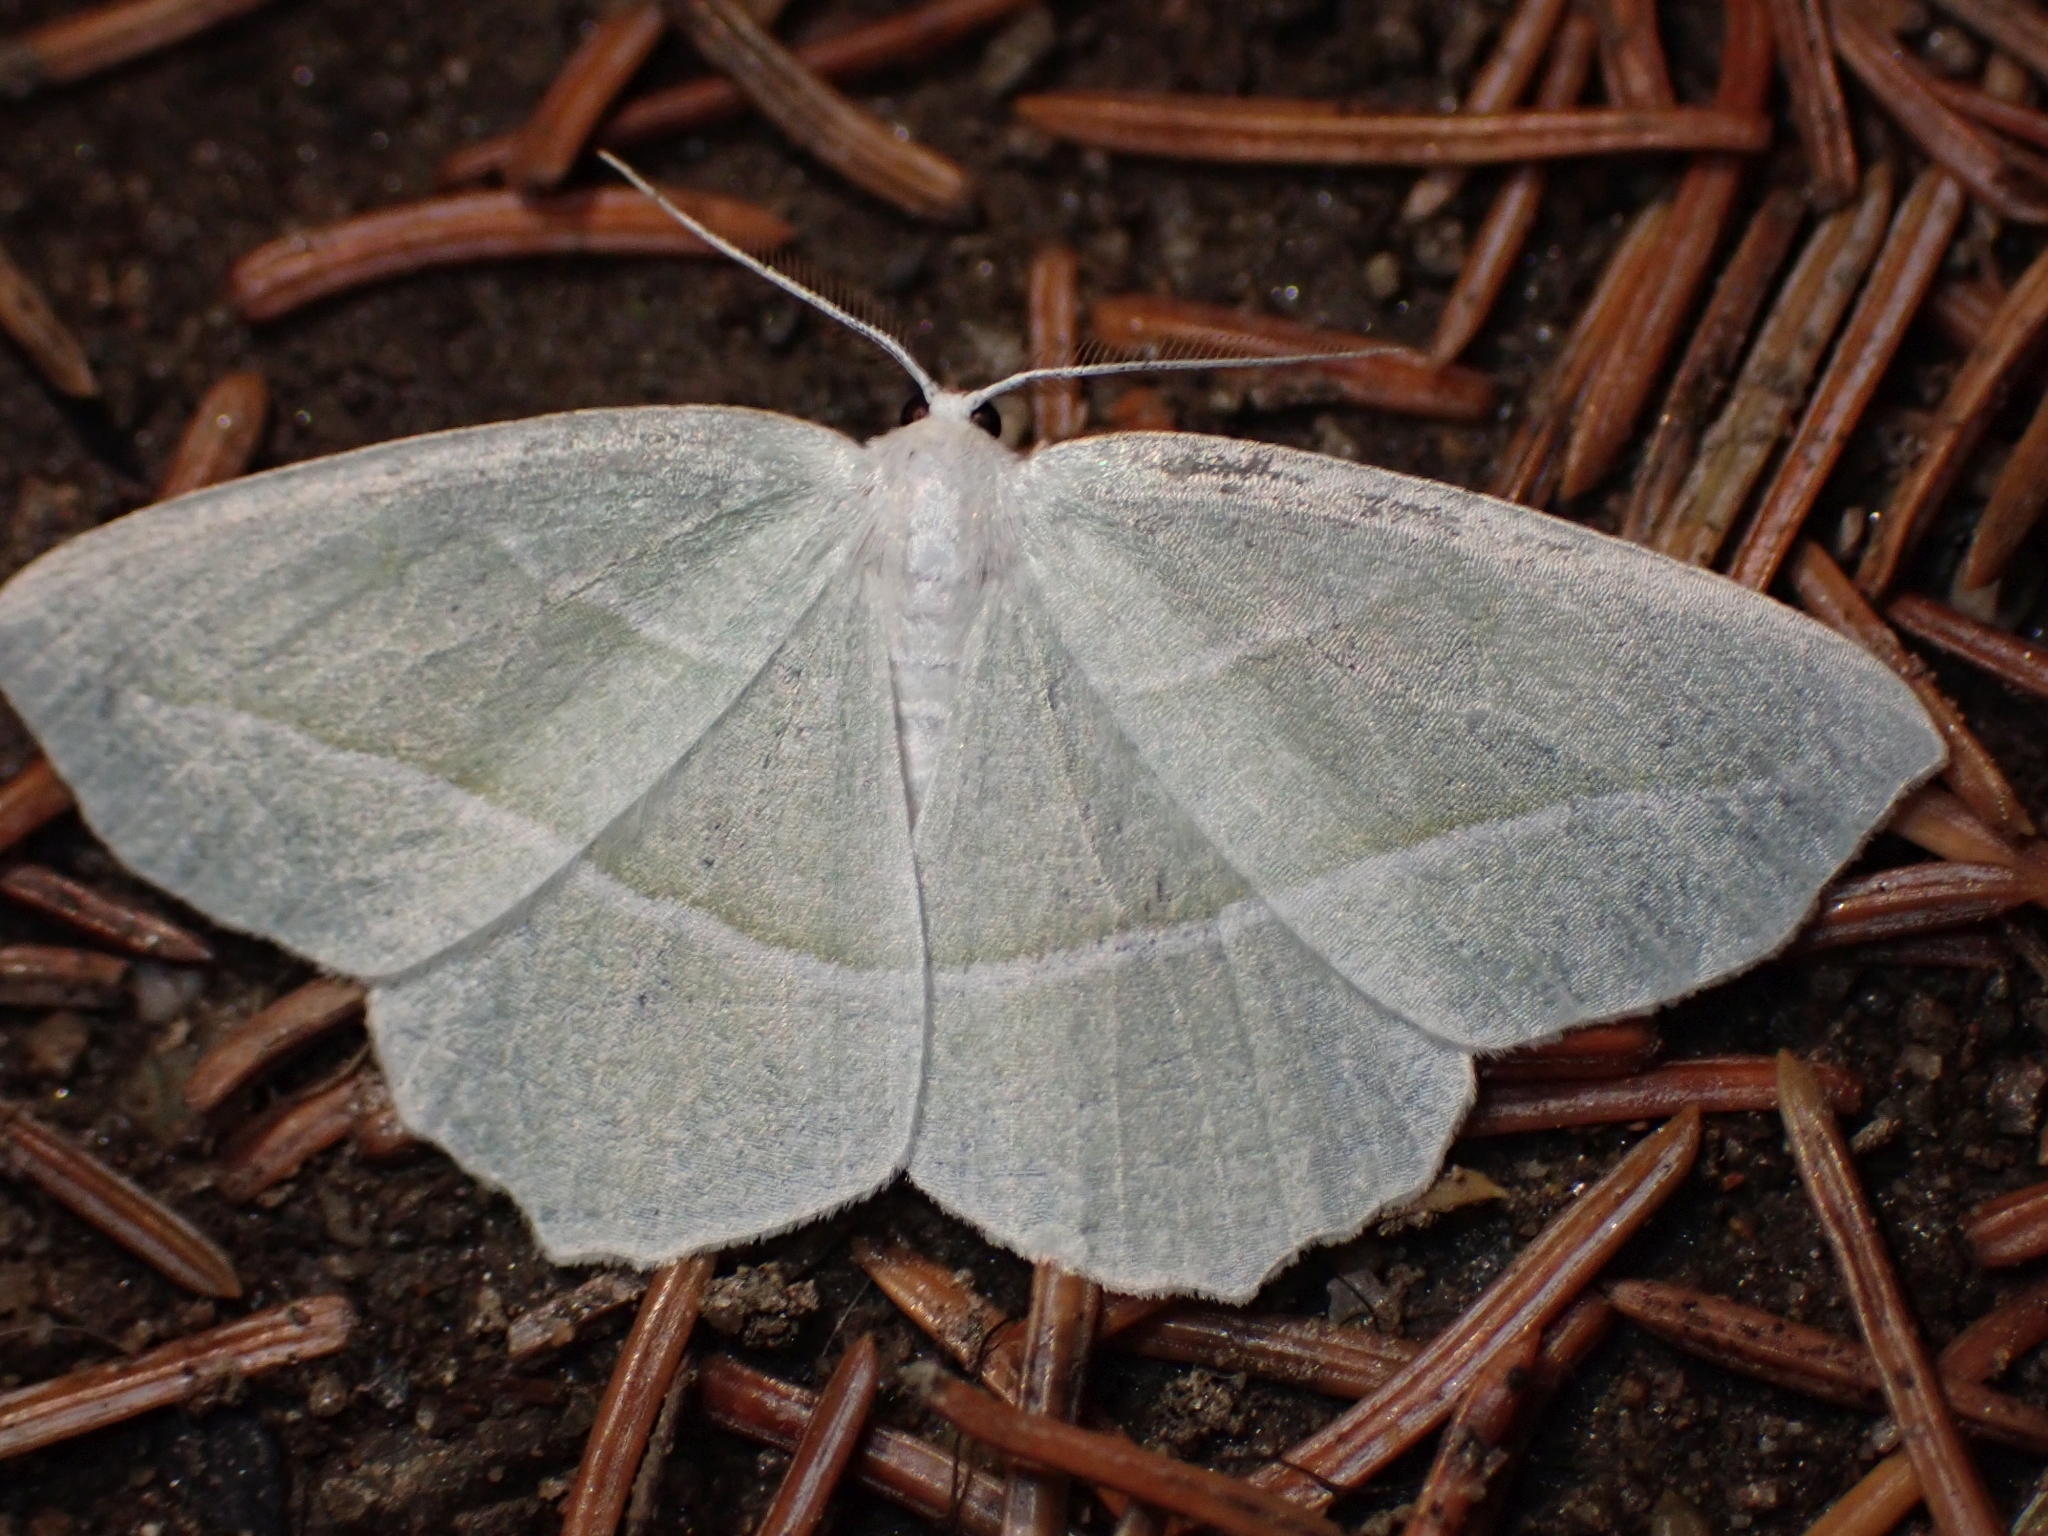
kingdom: Animalia
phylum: Arthropoda
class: Insecta
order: Lepidoptera
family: Geometridae
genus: Campaea
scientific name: Campaea perlata
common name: Fringed looper
